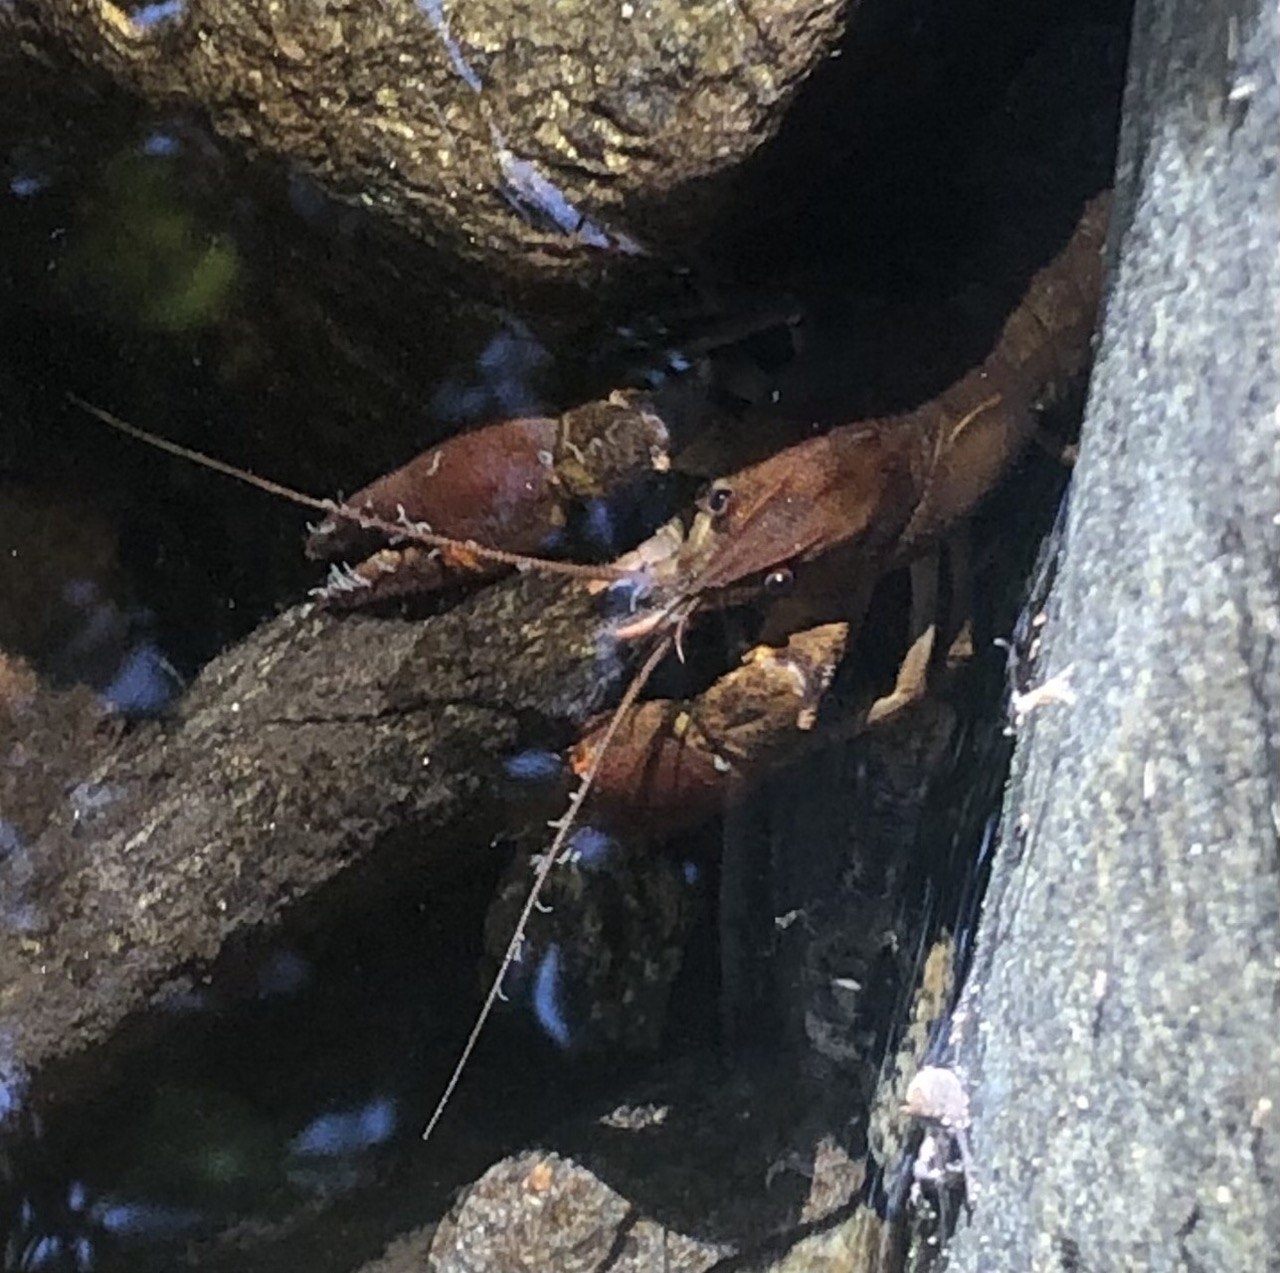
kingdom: Animalia
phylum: Arthropoda
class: Malacostraca
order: Decapoda
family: Astacidae
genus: Austropotamobius
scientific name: Austropotamobius pallipes
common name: White-clawed crayfish
